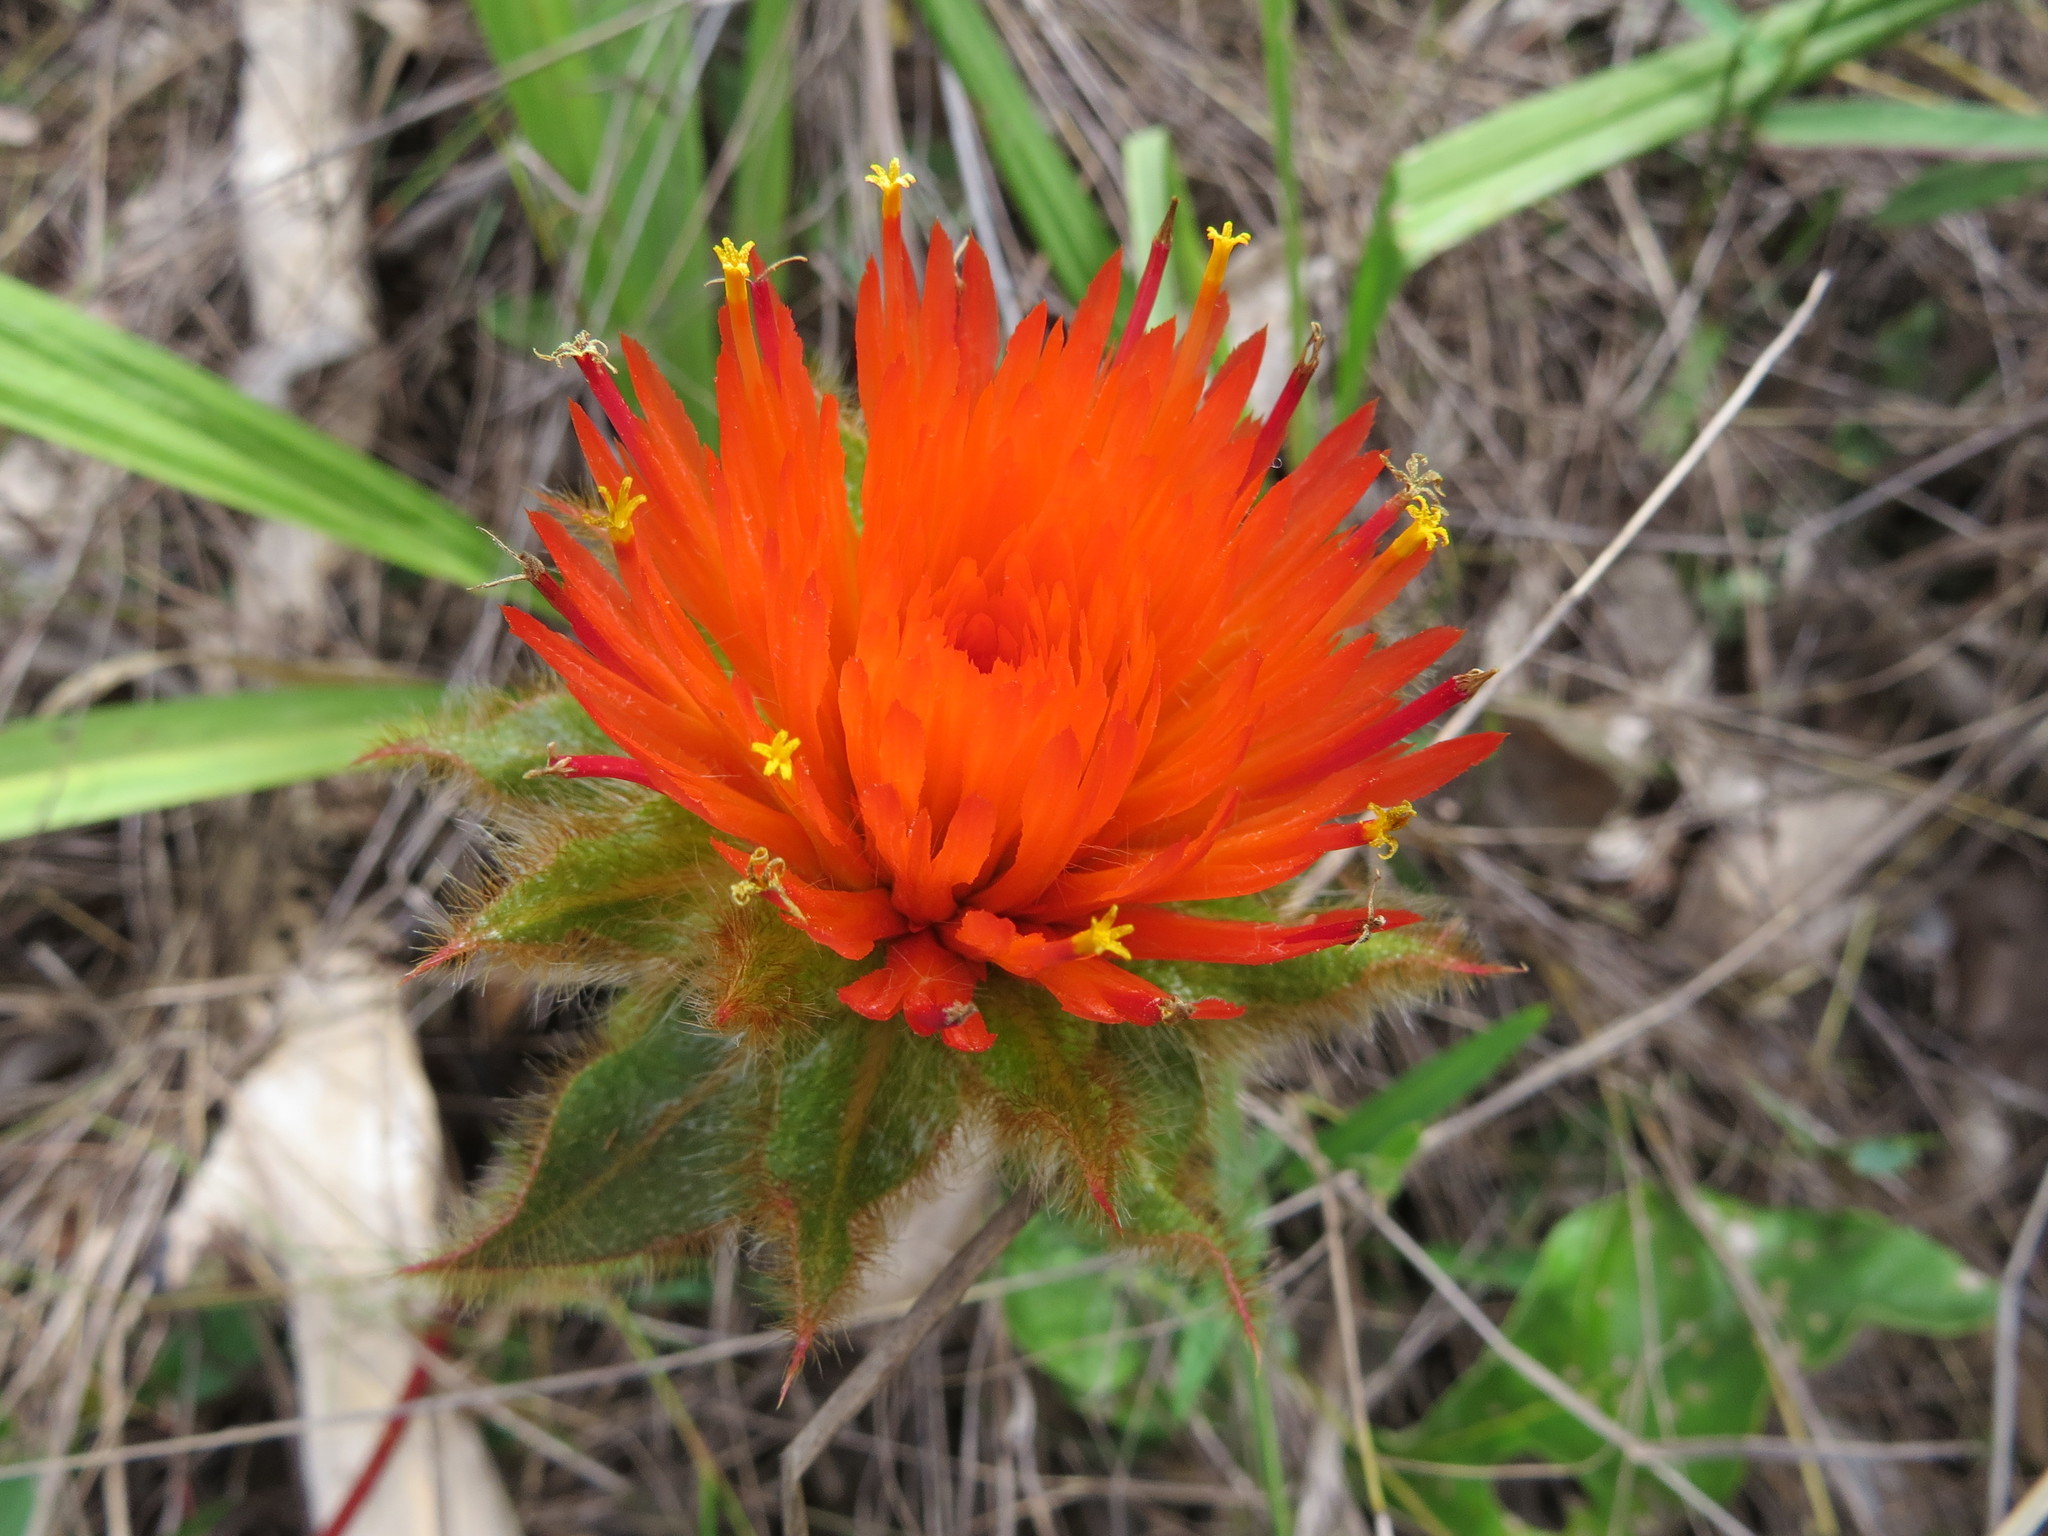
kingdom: Plantae
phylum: Tracheophyta
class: Magnoliopsida
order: Caryophyllales
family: Amaranthaceae
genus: Gomphrena
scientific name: Gomphrena arborescens
